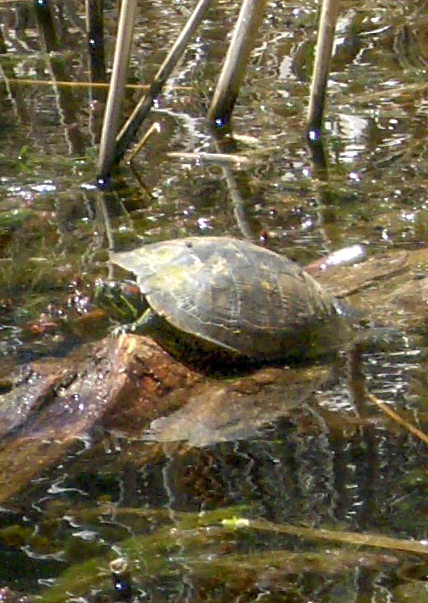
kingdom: Animalia
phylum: Chordata
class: Testudines
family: Emydidae
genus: Trachemys
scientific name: Trachemys scripta
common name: Slider
